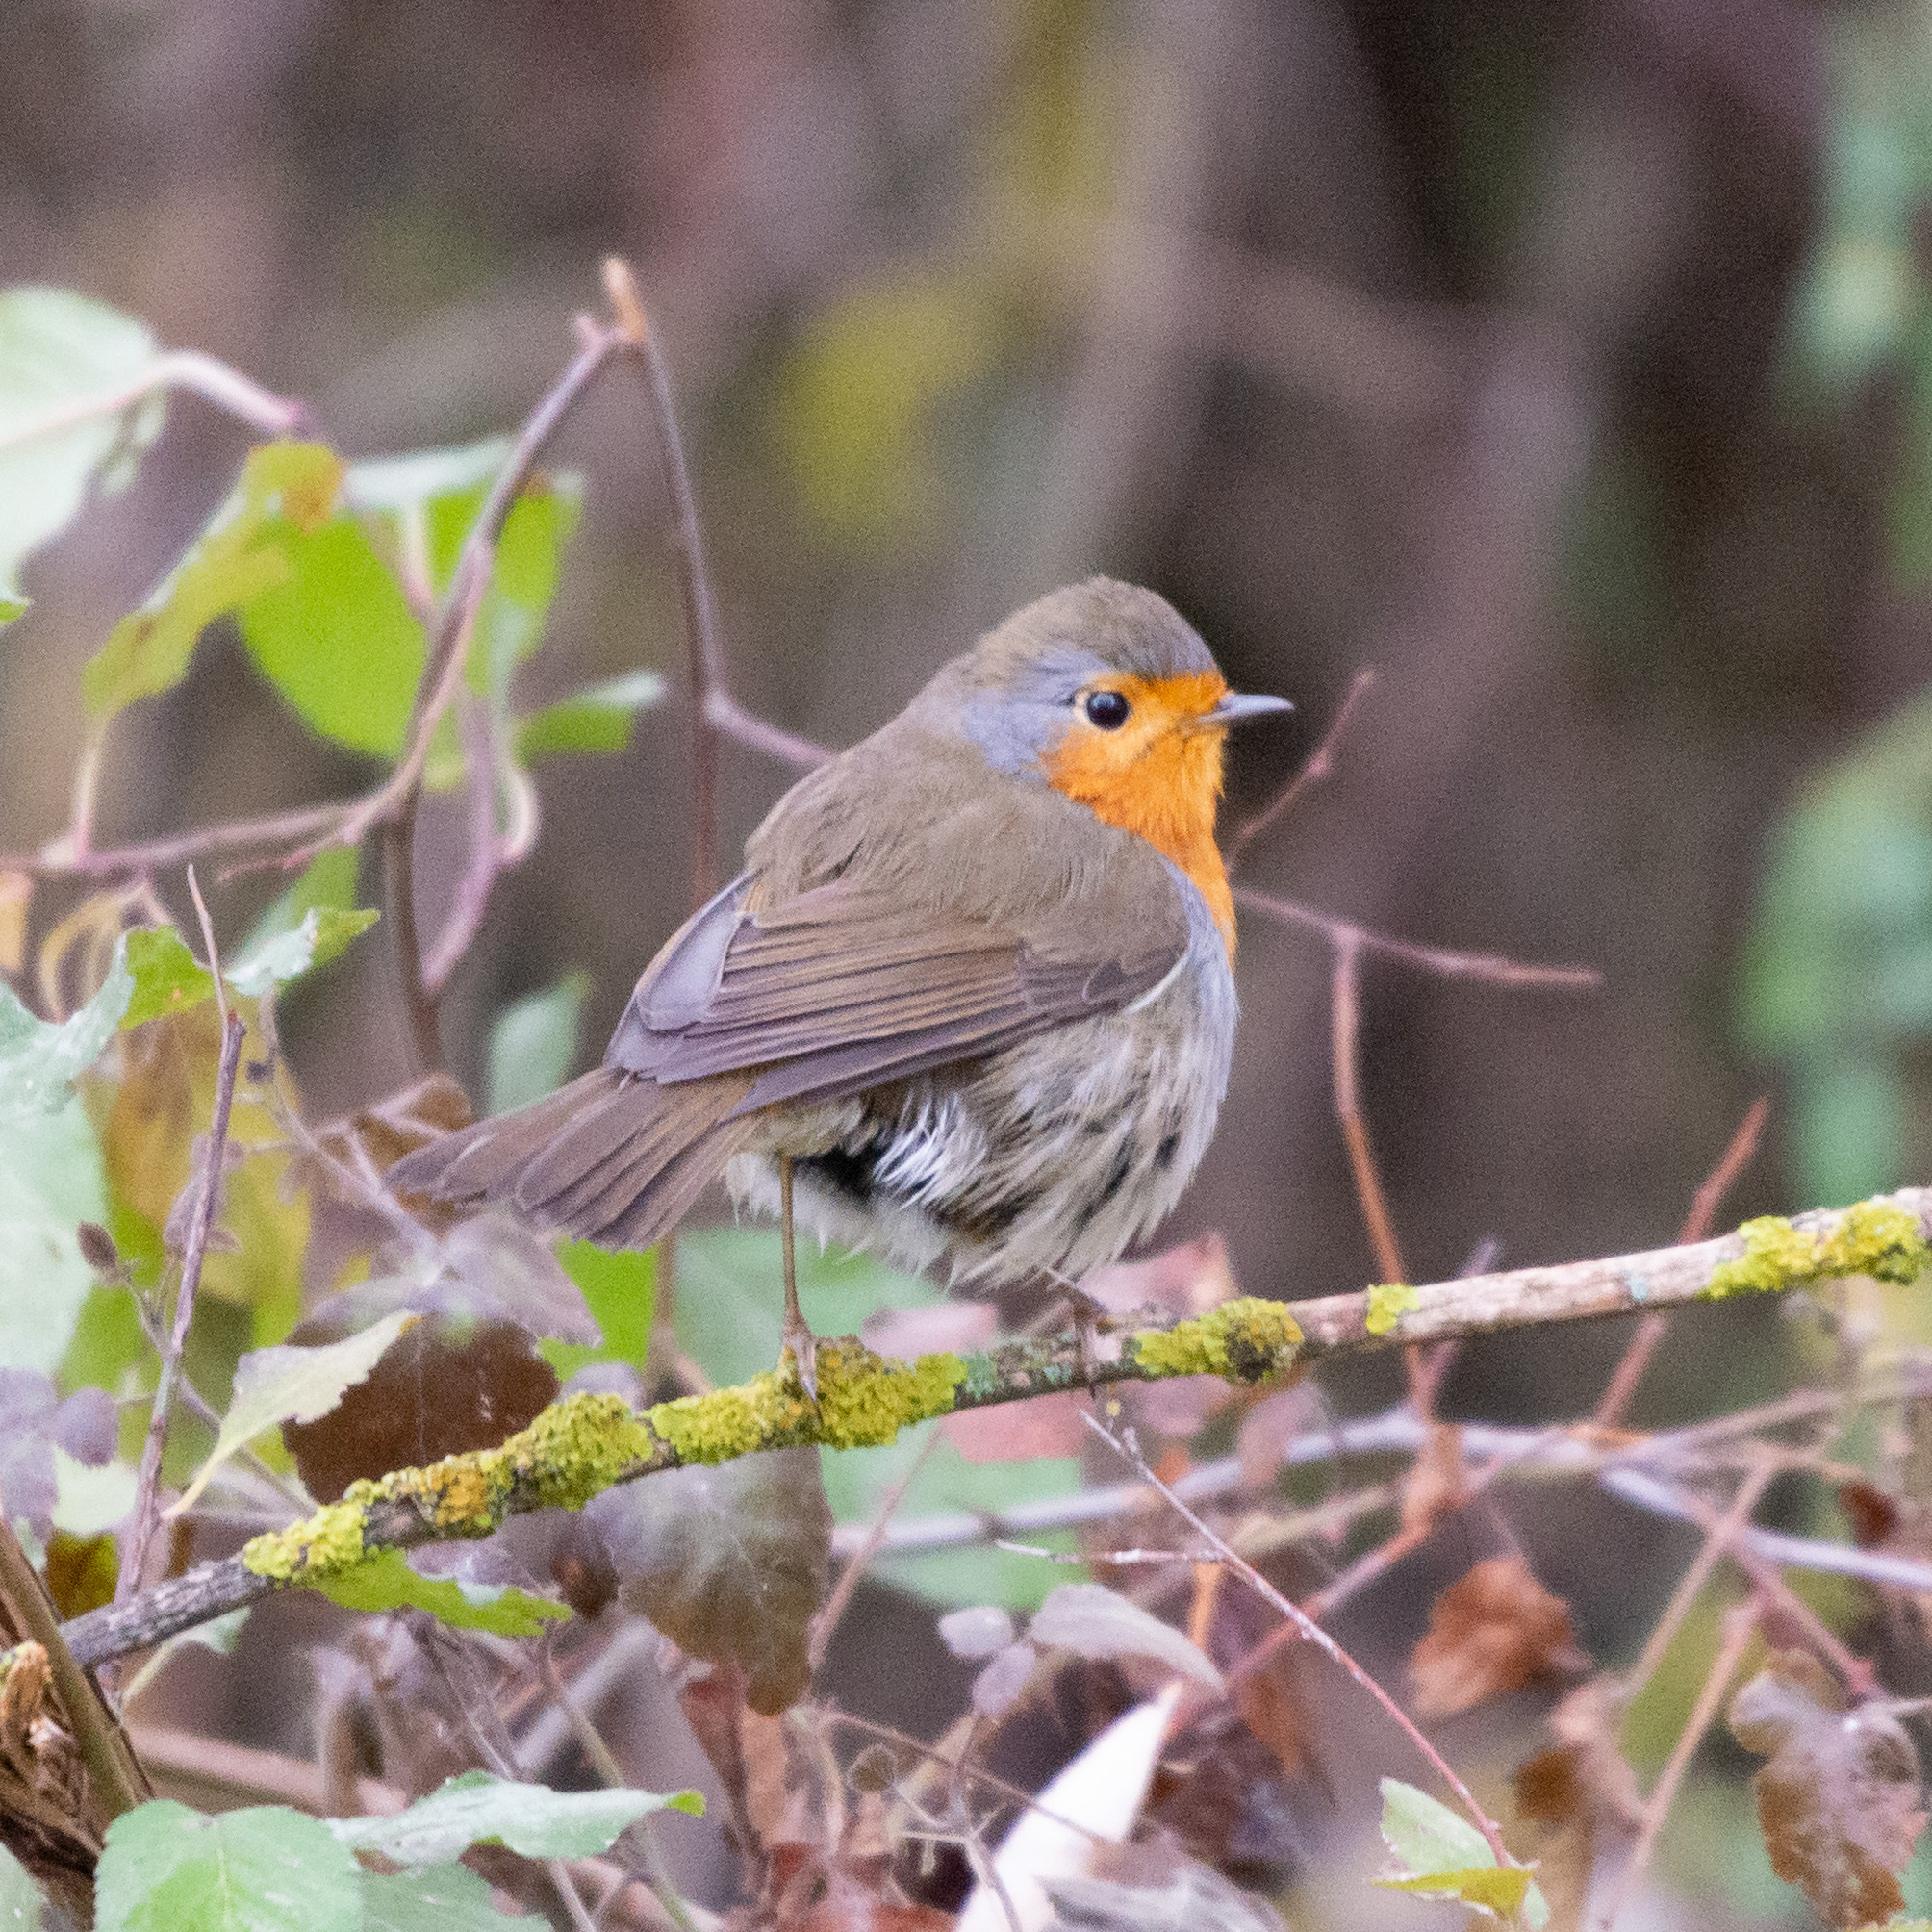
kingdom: Animalia
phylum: Chordata
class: Aves
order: Passeriformes
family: Muscicapidae
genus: Erithacus
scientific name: Erithacus rubecula
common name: European robin
